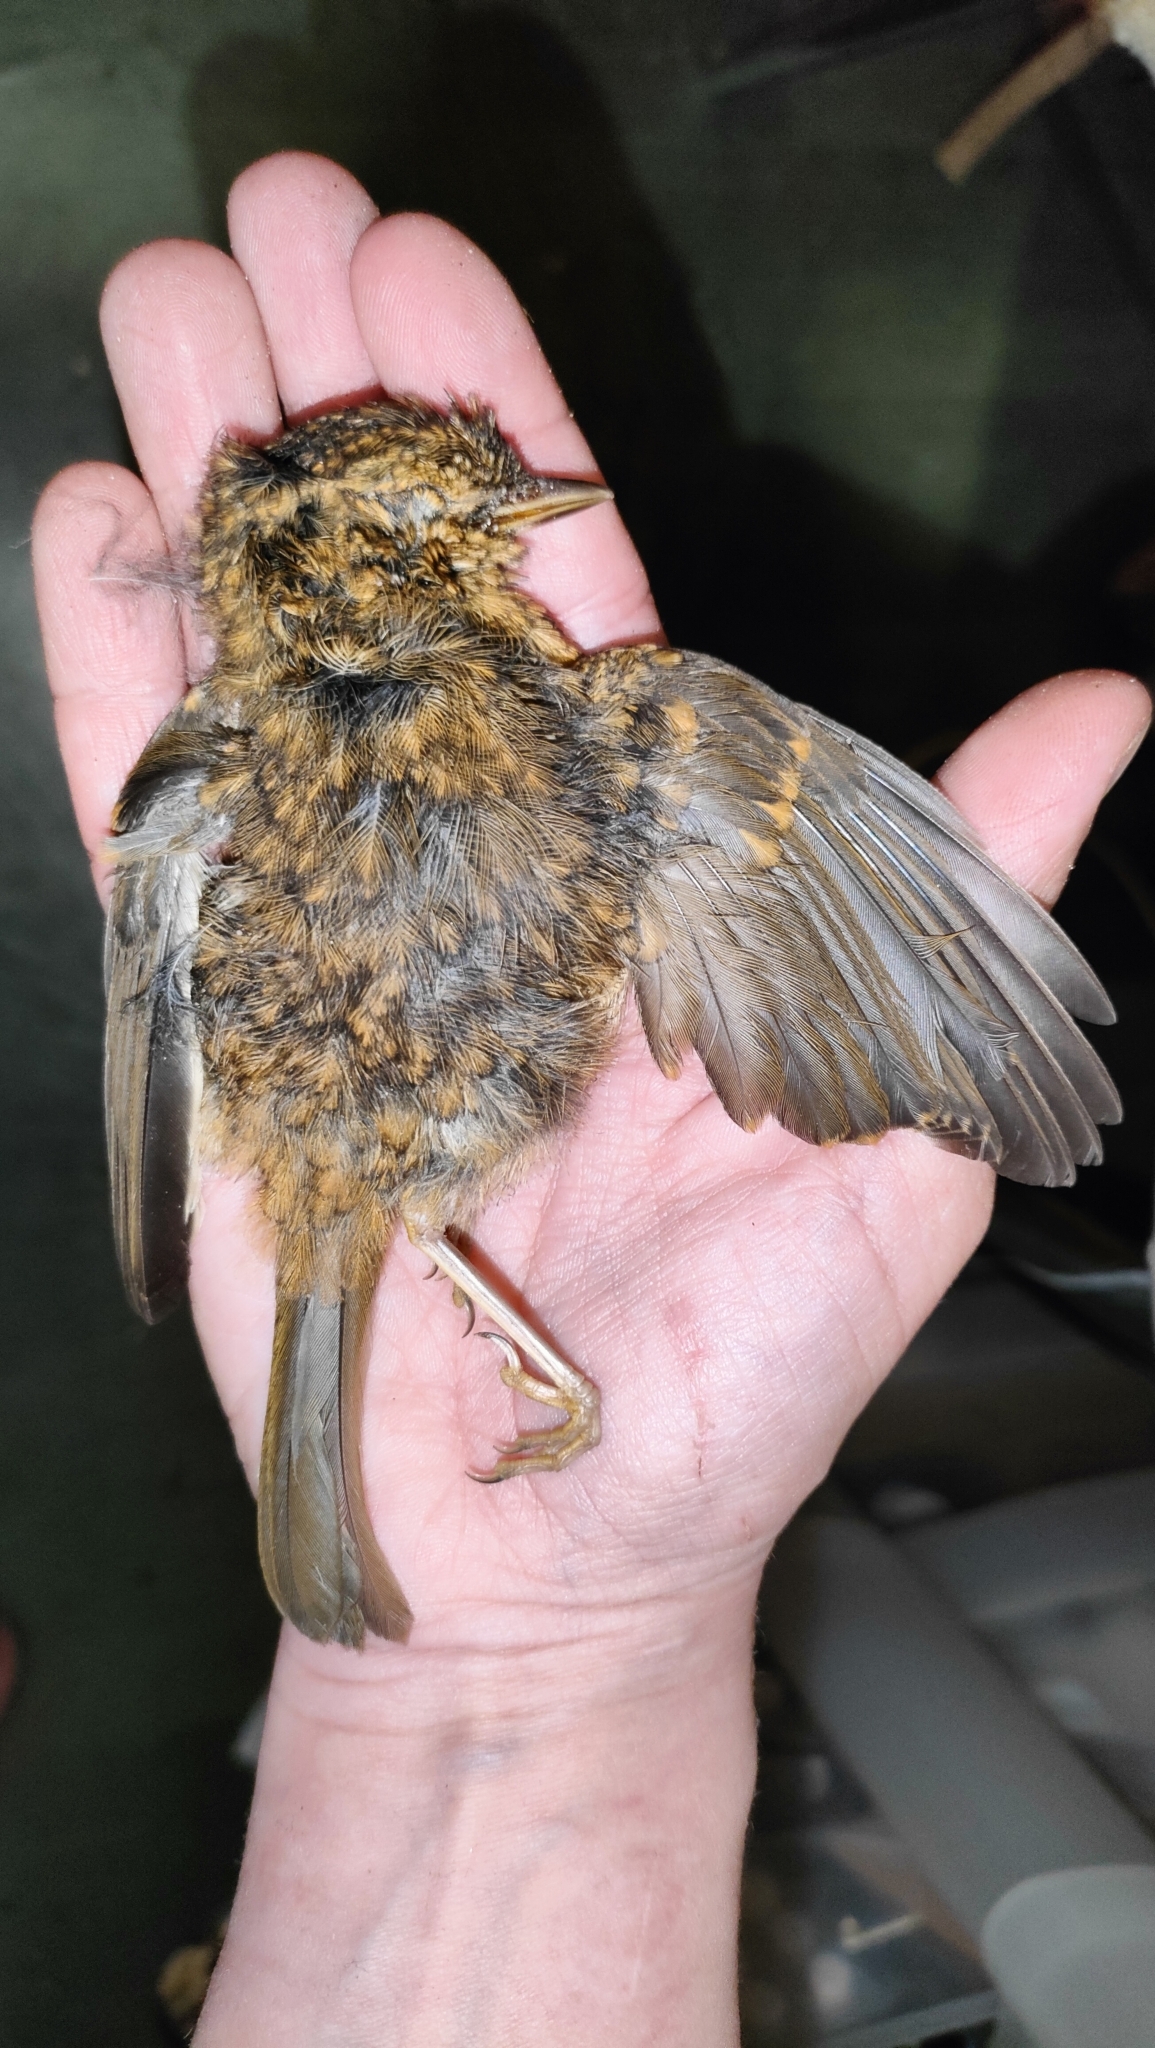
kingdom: Animalia
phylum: Chordata
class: Aves
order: Passeriformes
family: Muscicapidae
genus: Erithacus
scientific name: Erithacus rubecula
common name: European robin
